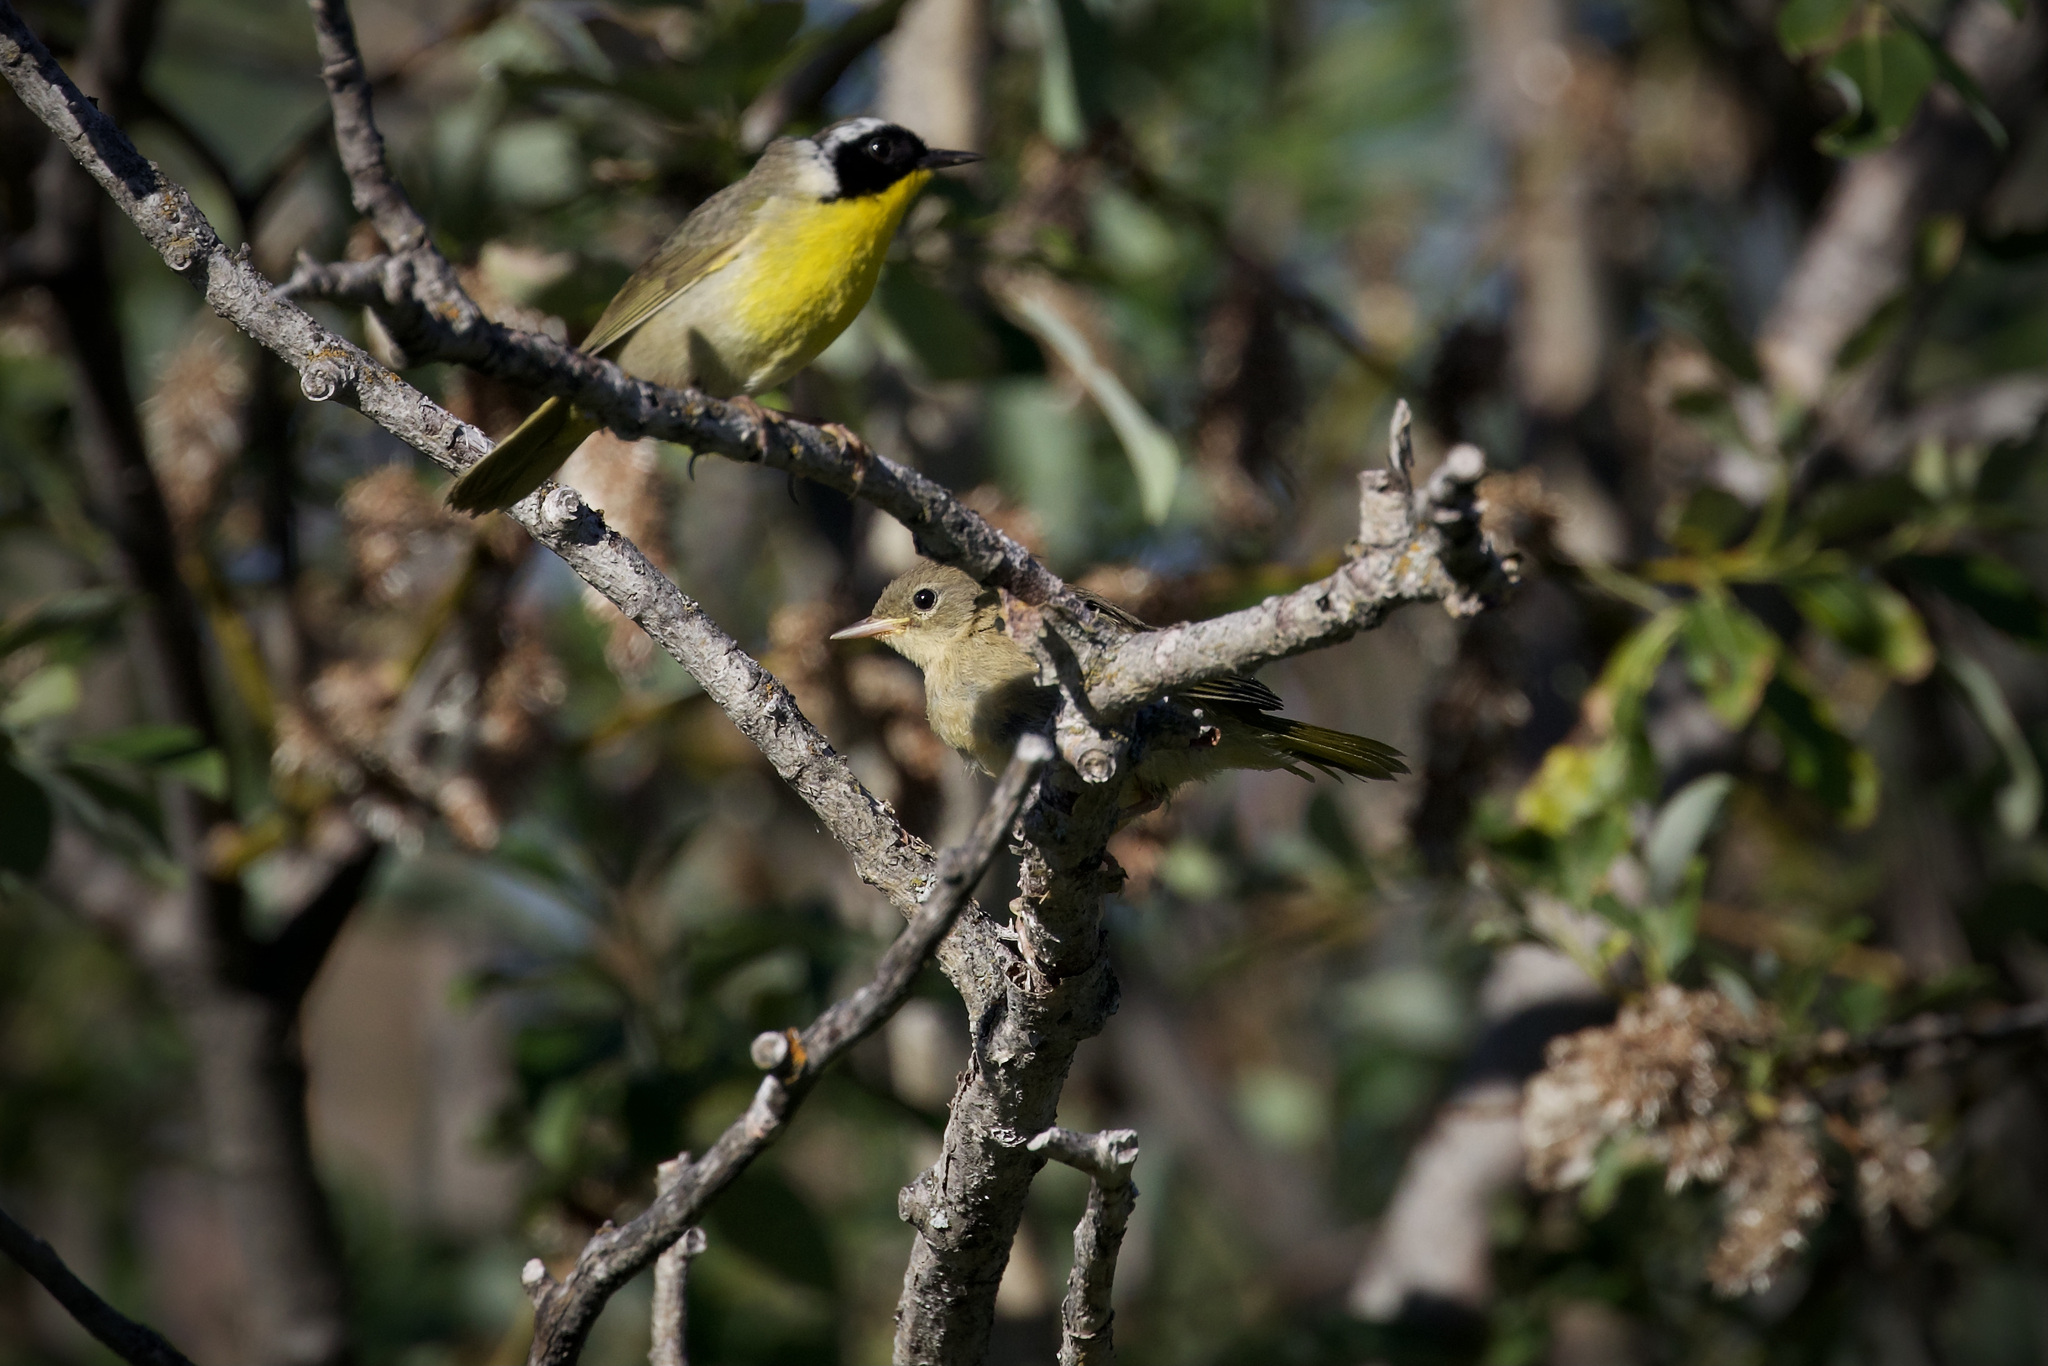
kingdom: Animalia
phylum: Chordata
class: Aves
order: Passeriformes
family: Parulidae
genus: Geothlypis
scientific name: Geothlypis trichas
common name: Common yellowthroat
